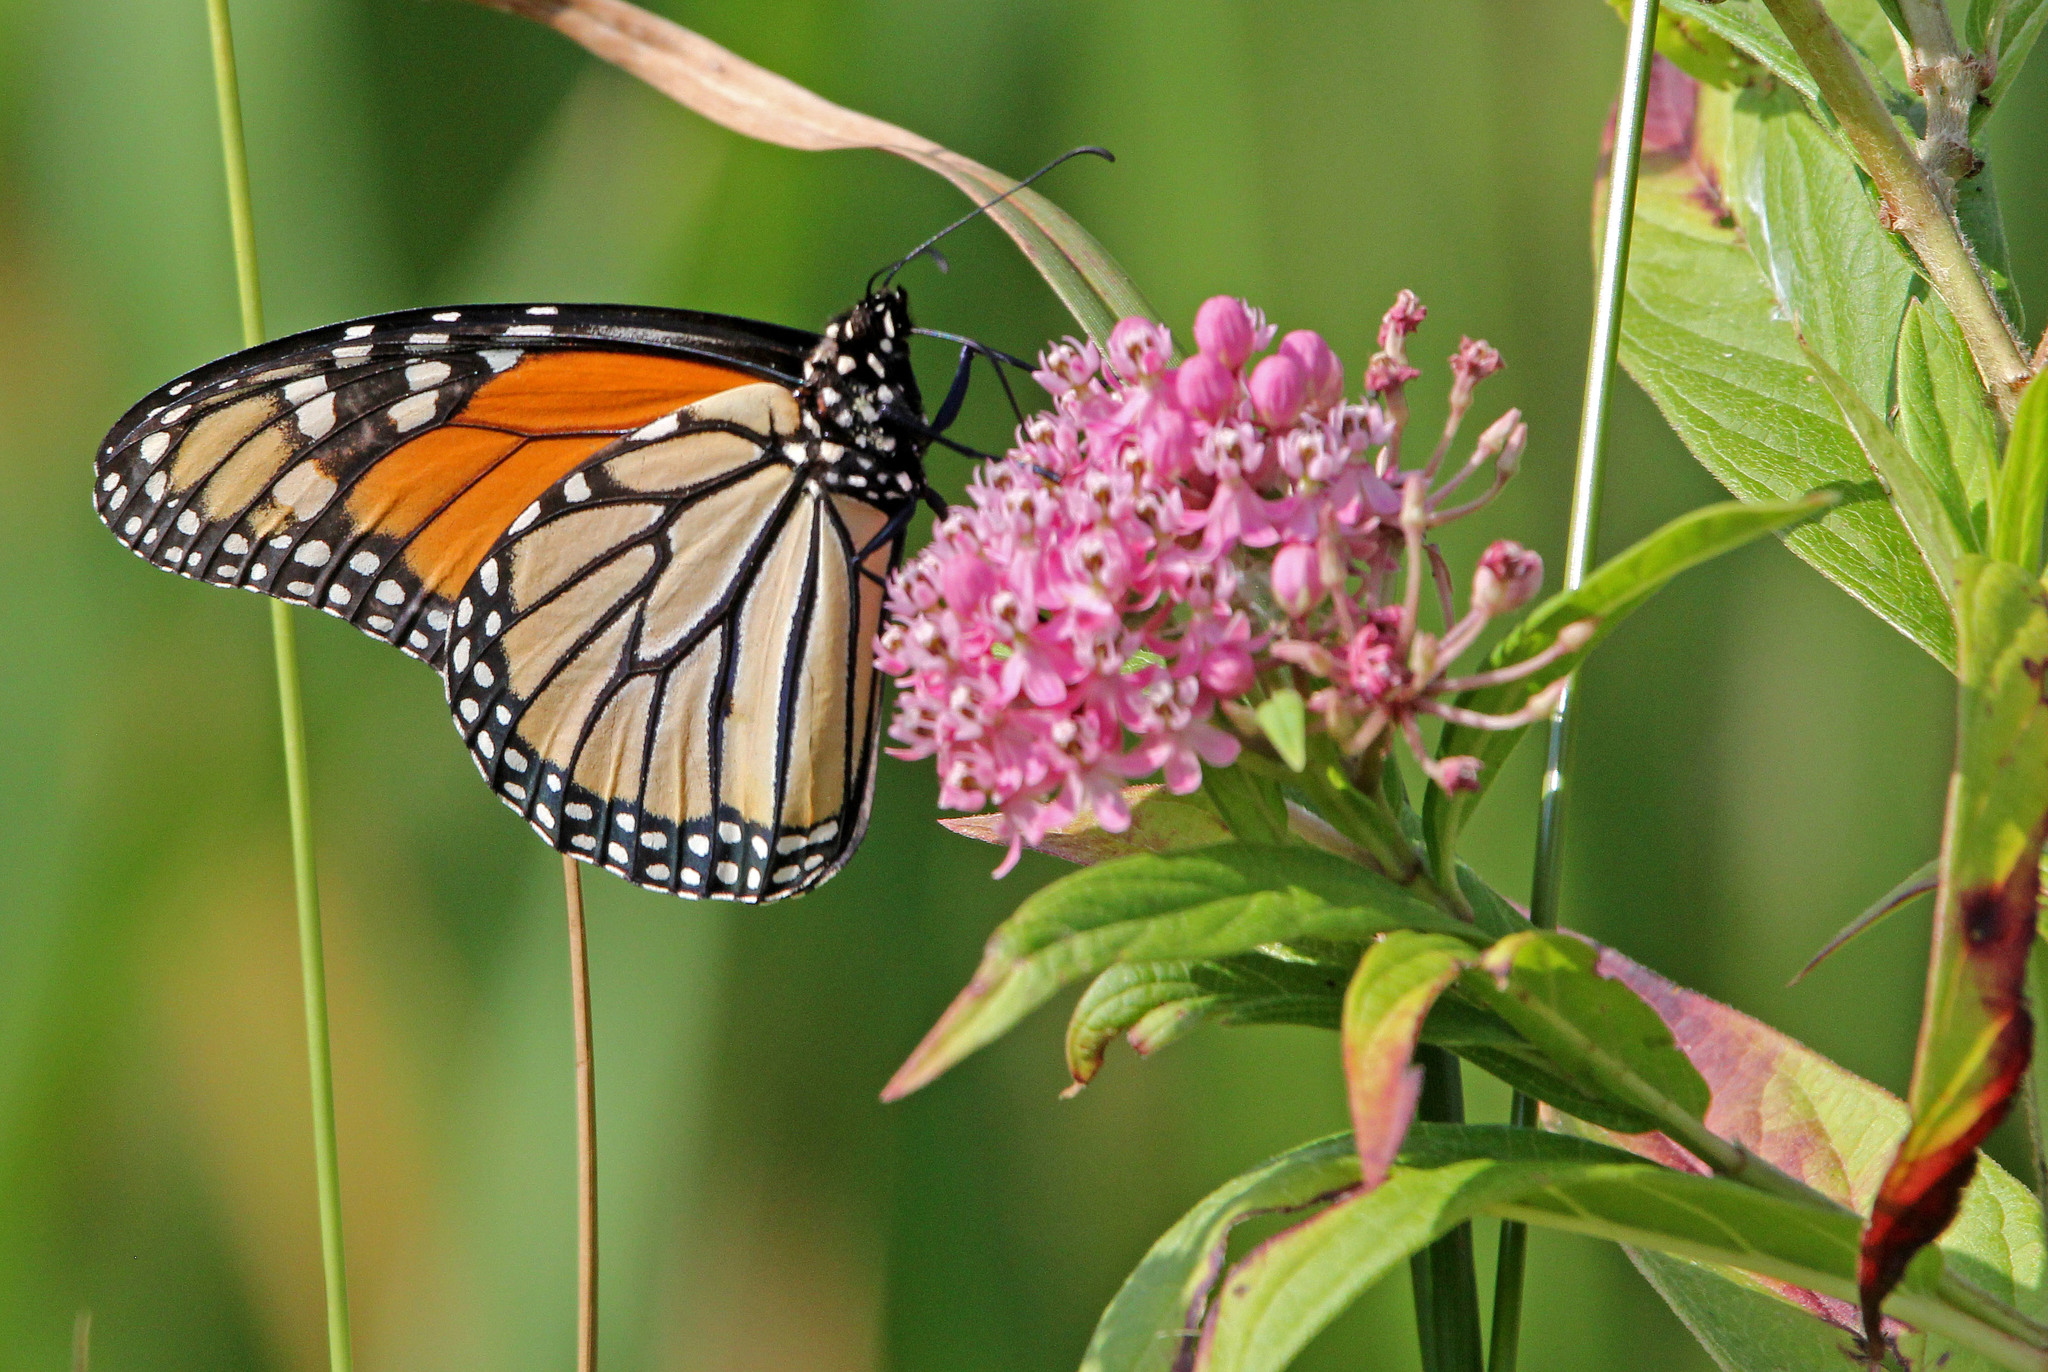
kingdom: Animalia
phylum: Arthropoda
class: Insecta
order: Lepidoptera
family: Nymphalidae
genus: Danaus
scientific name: Danaus plexippus
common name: Monarch
